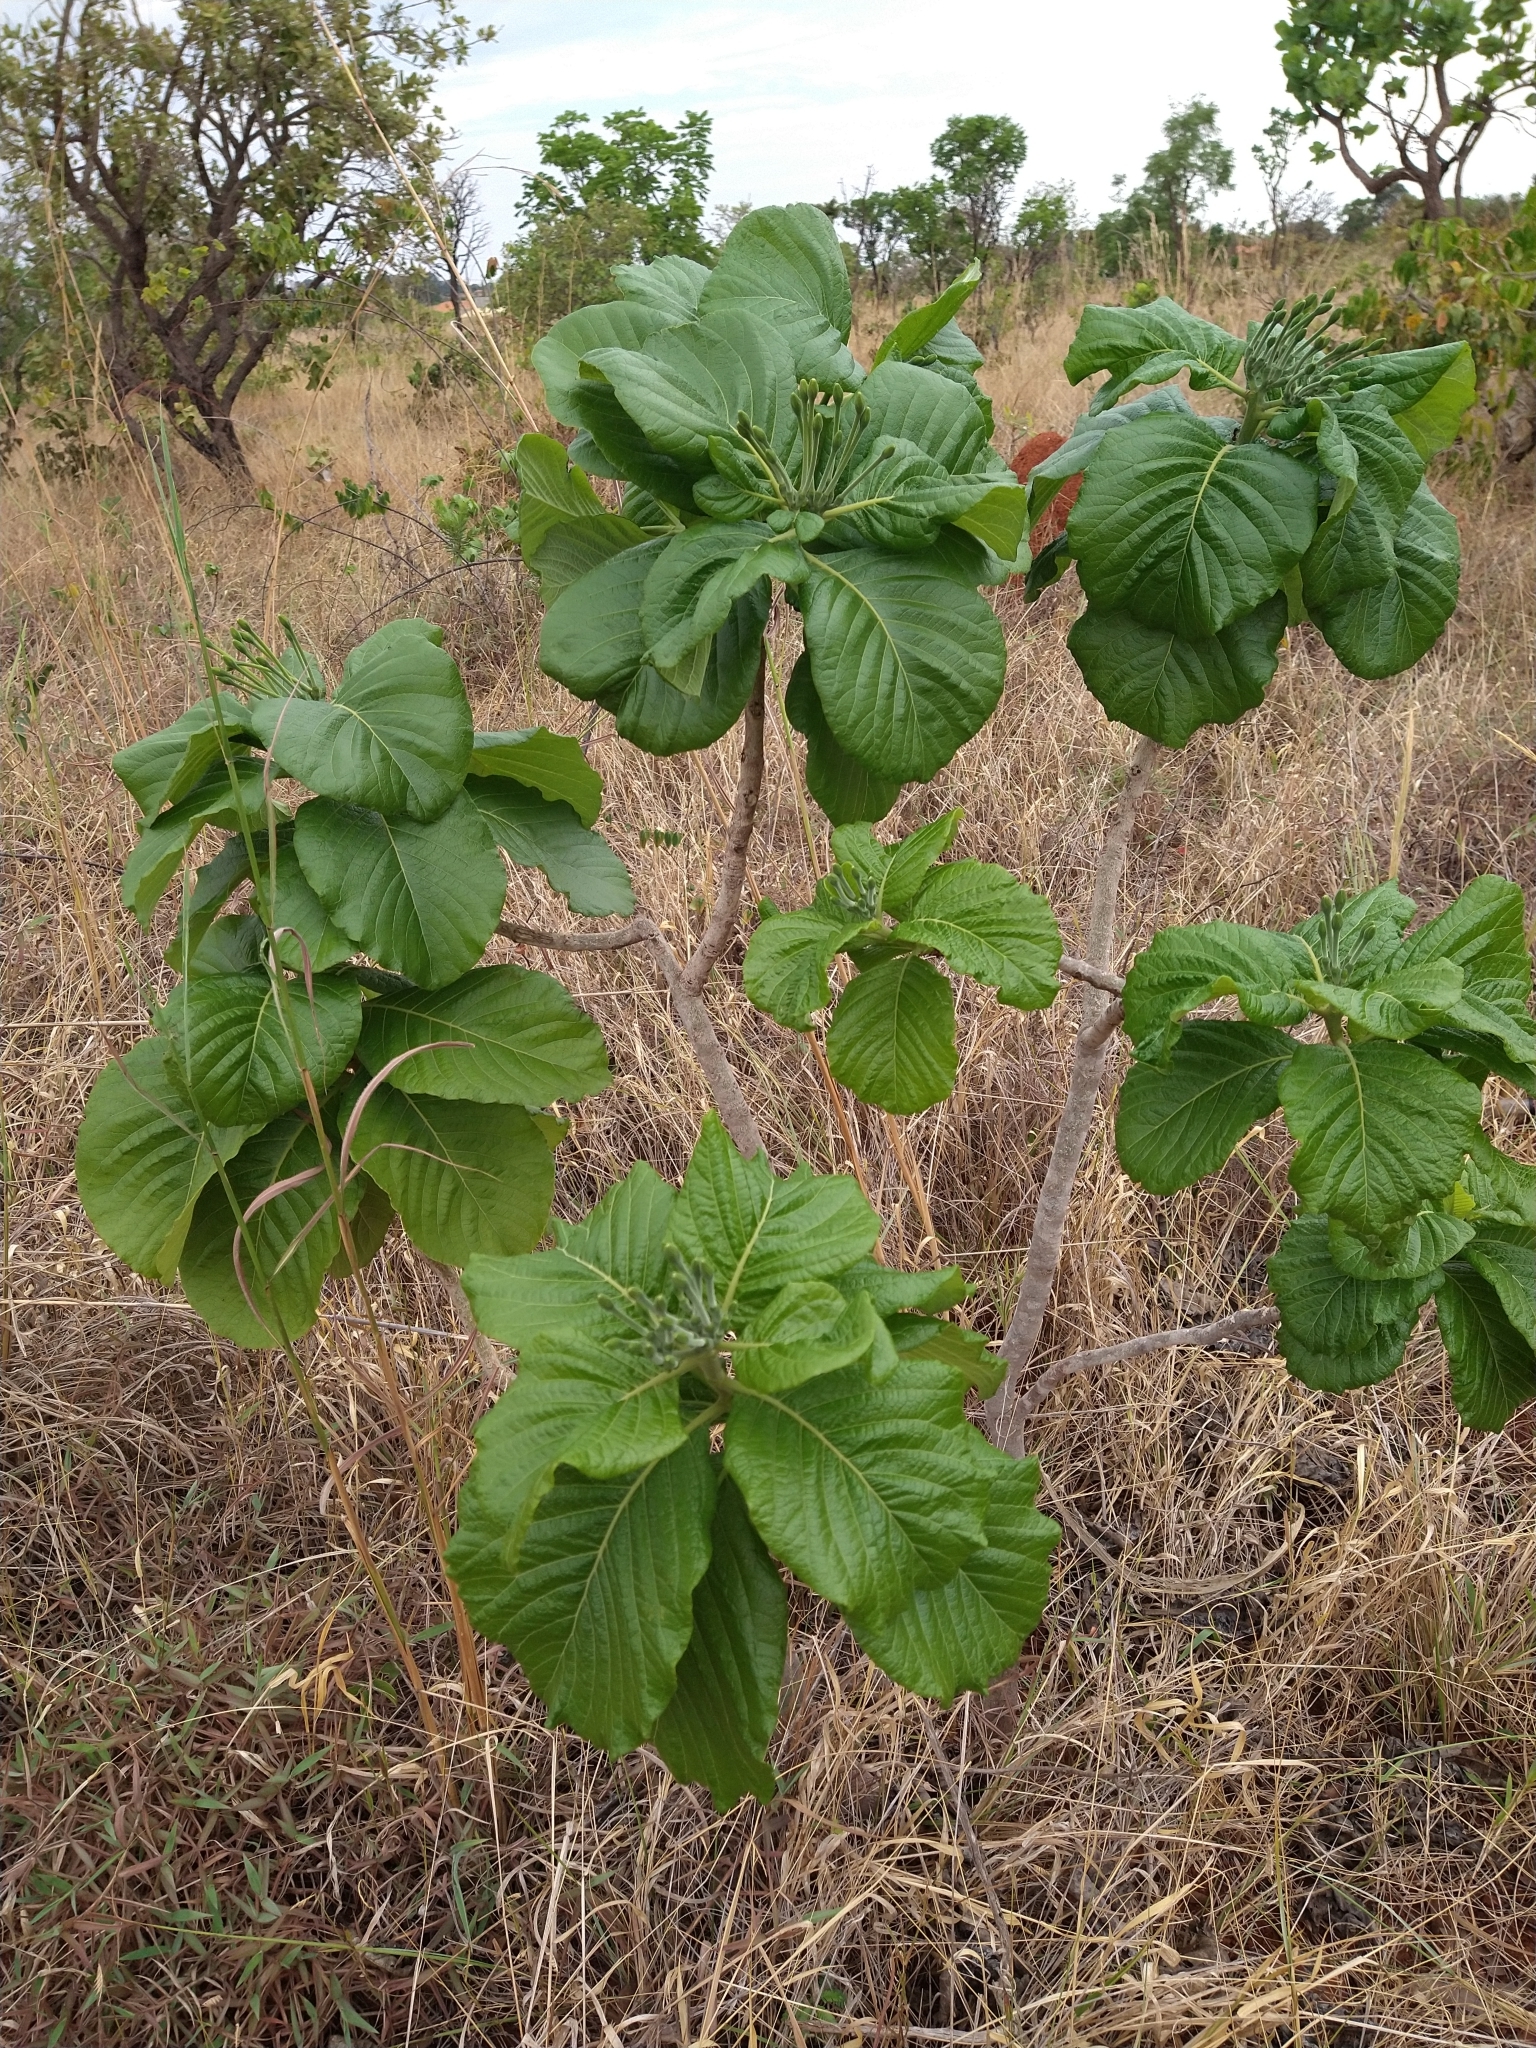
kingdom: Plantae
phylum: Tracheophyta
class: Magnoliopsida
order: Gentianales
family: Rubiaceae
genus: Tocoyena
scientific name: Tocoyena formosa
